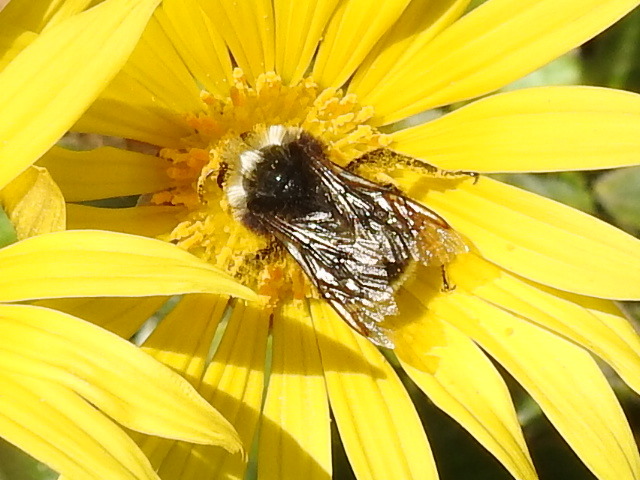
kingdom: Animalia
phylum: Arthropoda
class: Insecta
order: Hymenoptera
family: Apidae
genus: Bombus
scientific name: Bombus vosnesenskii
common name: Vosnesensky bumble bee
